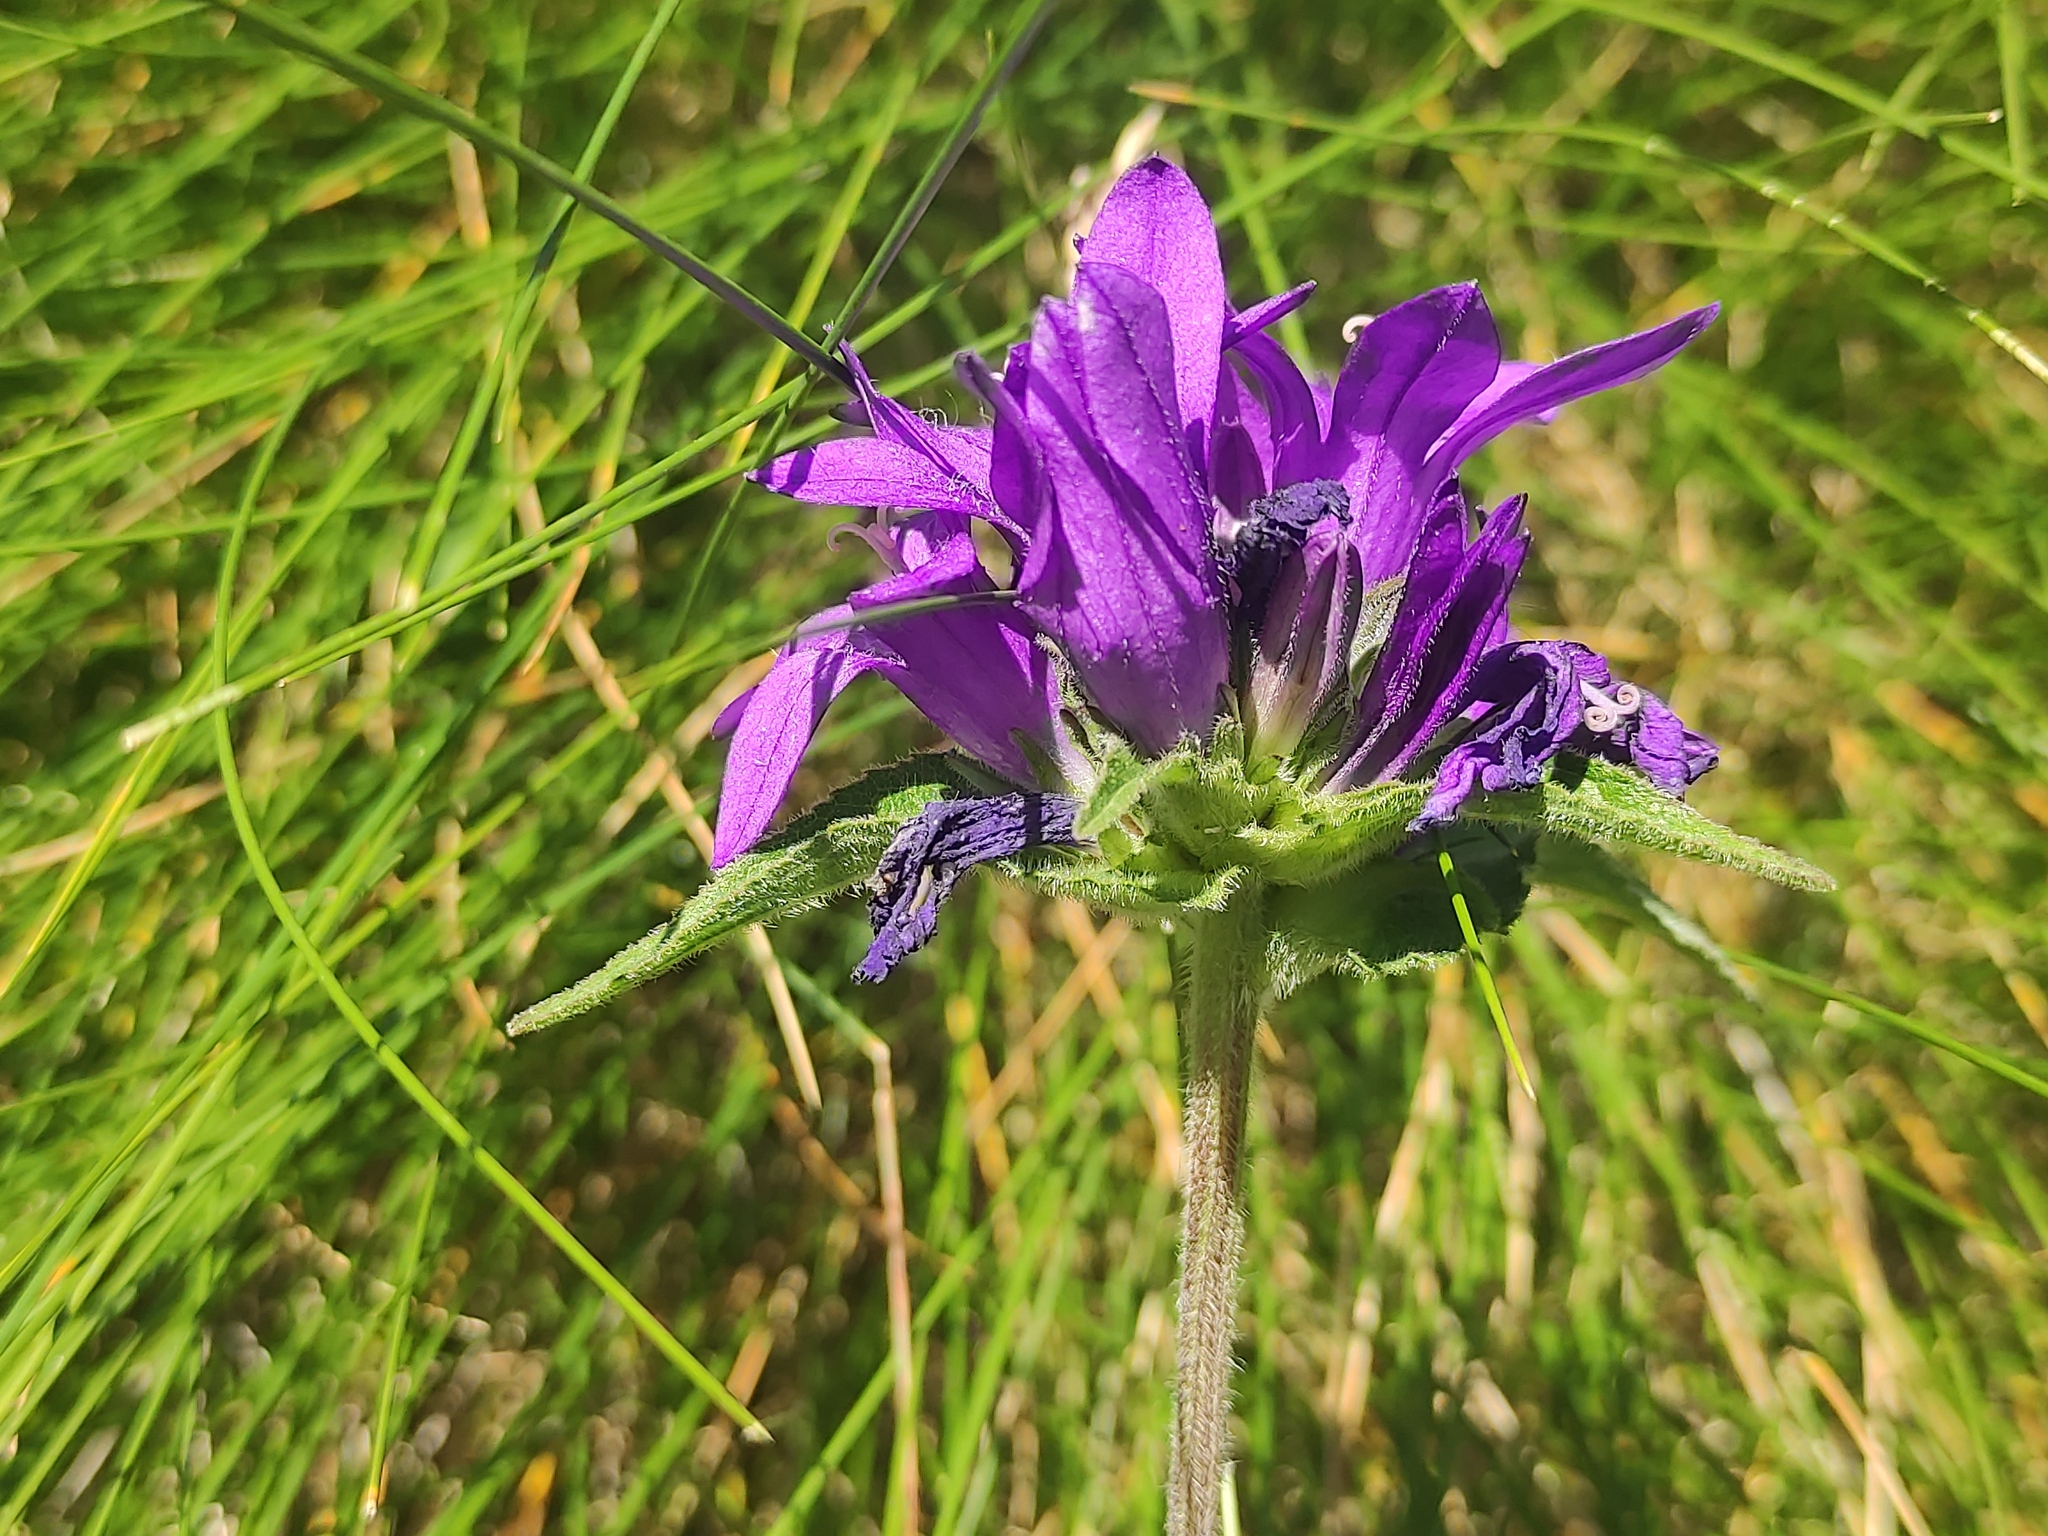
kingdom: Plantae
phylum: Tracheophyta
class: Magnoliopsida
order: Asterales
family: Campanulaceae
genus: Campanula
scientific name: Campanula glomerata
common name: Clustered bellflower
